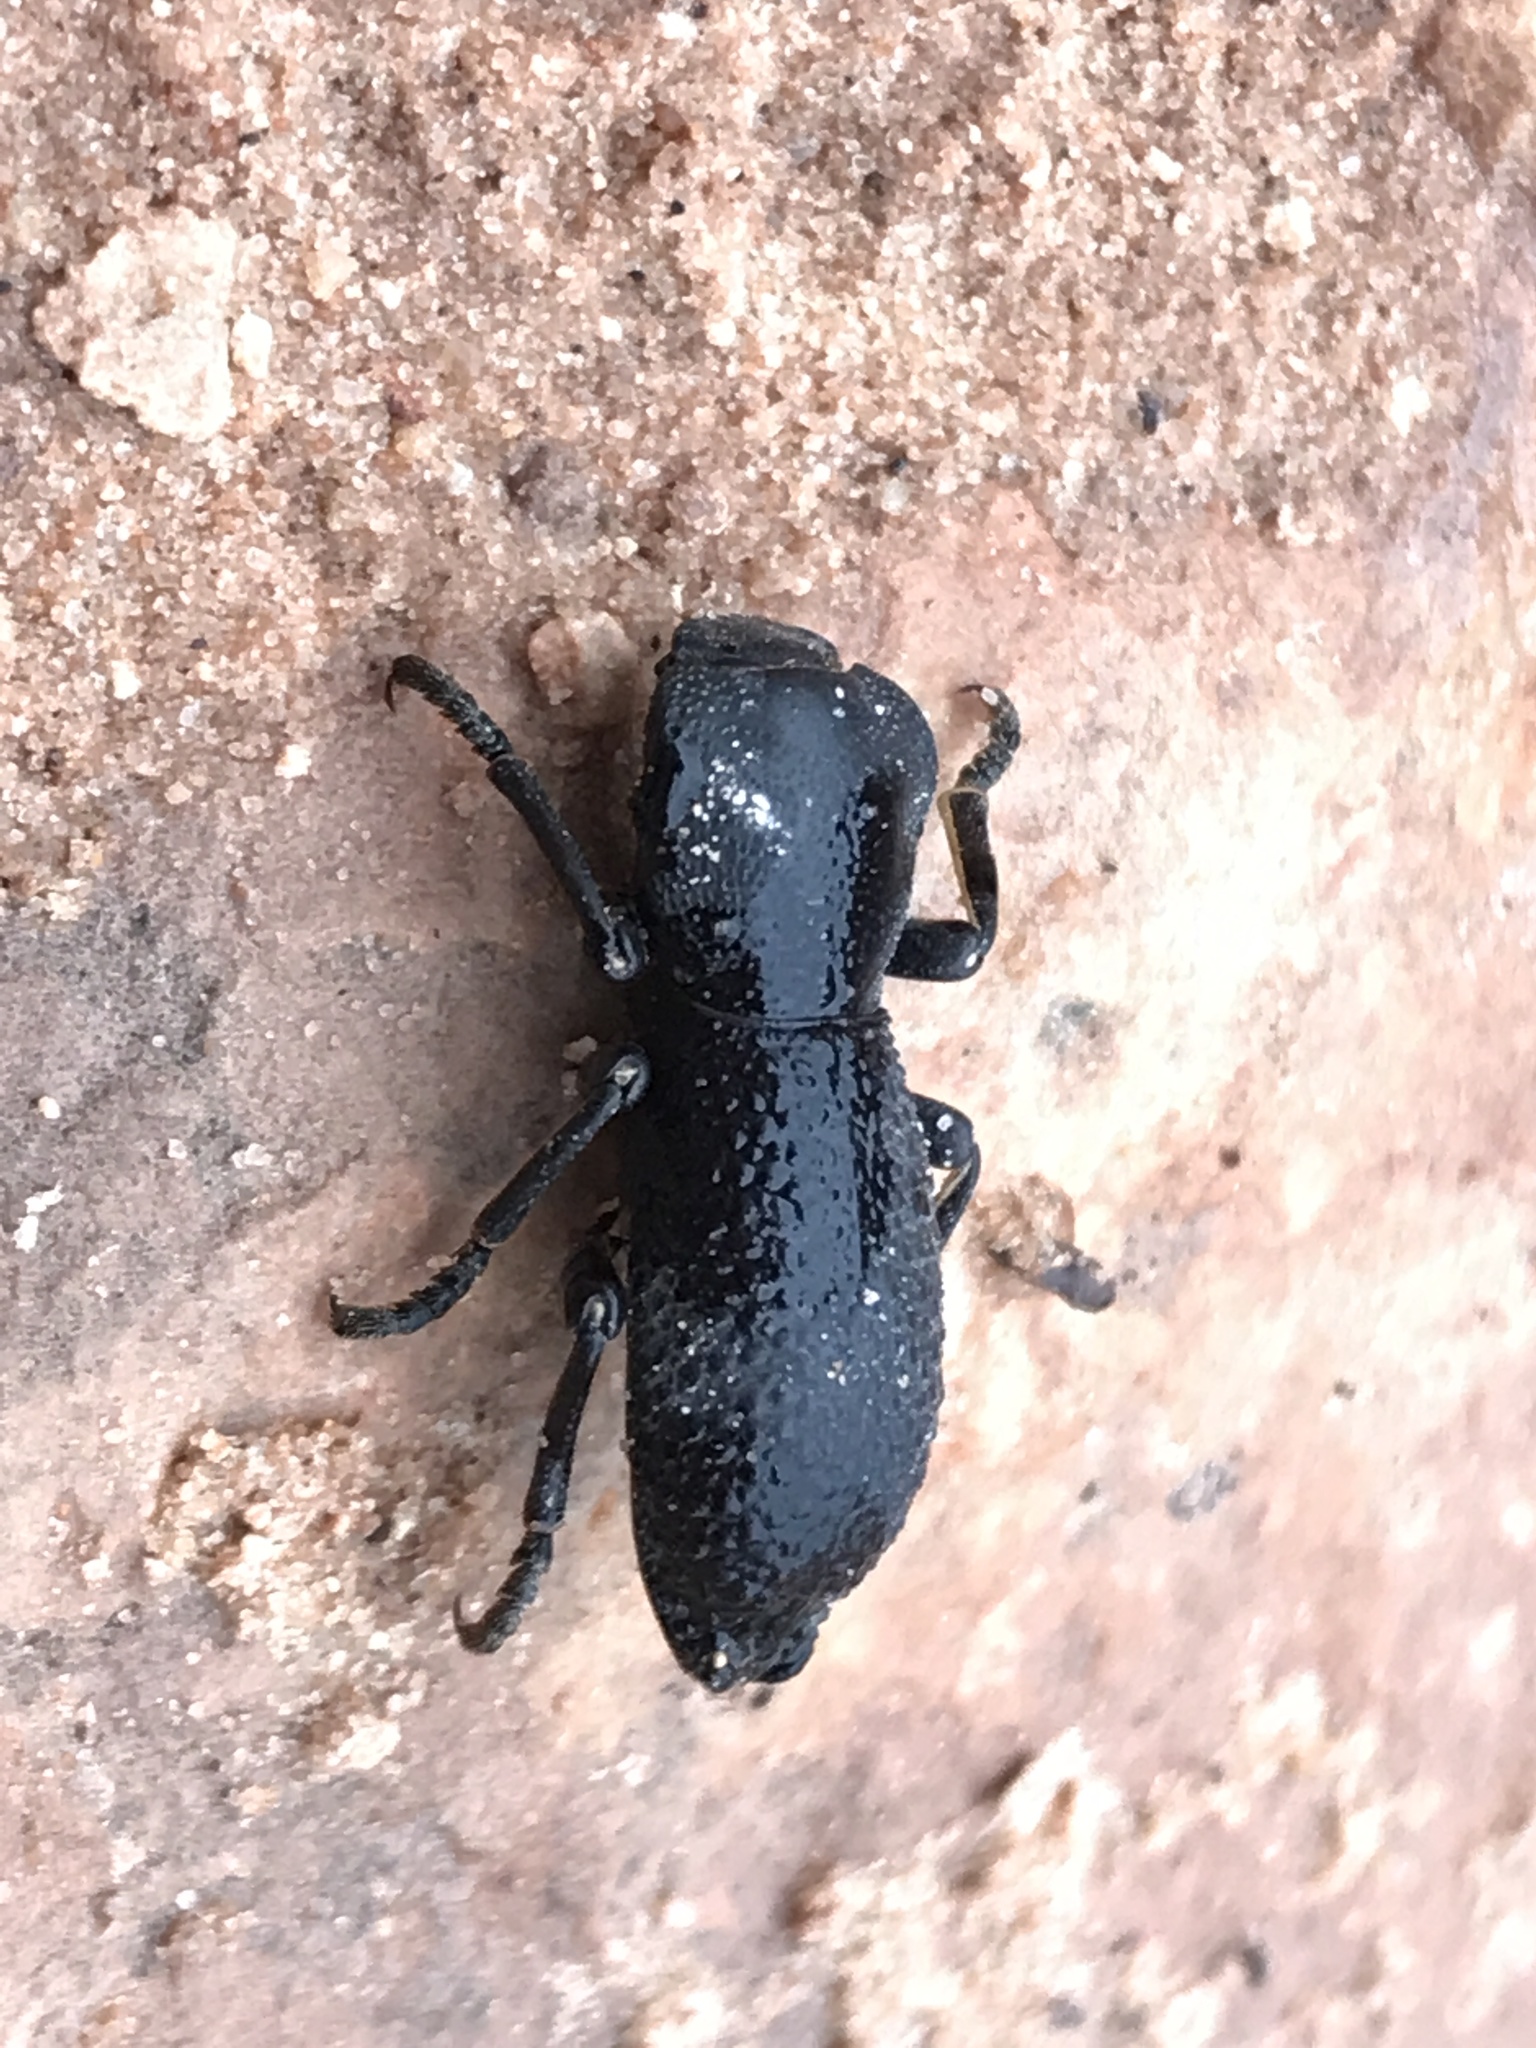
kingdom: Animalia
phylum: Arthropoda
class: Insecta
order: Coleoptera
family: Zopheridae
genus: Zopherus
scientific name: Zopherus uteanus
